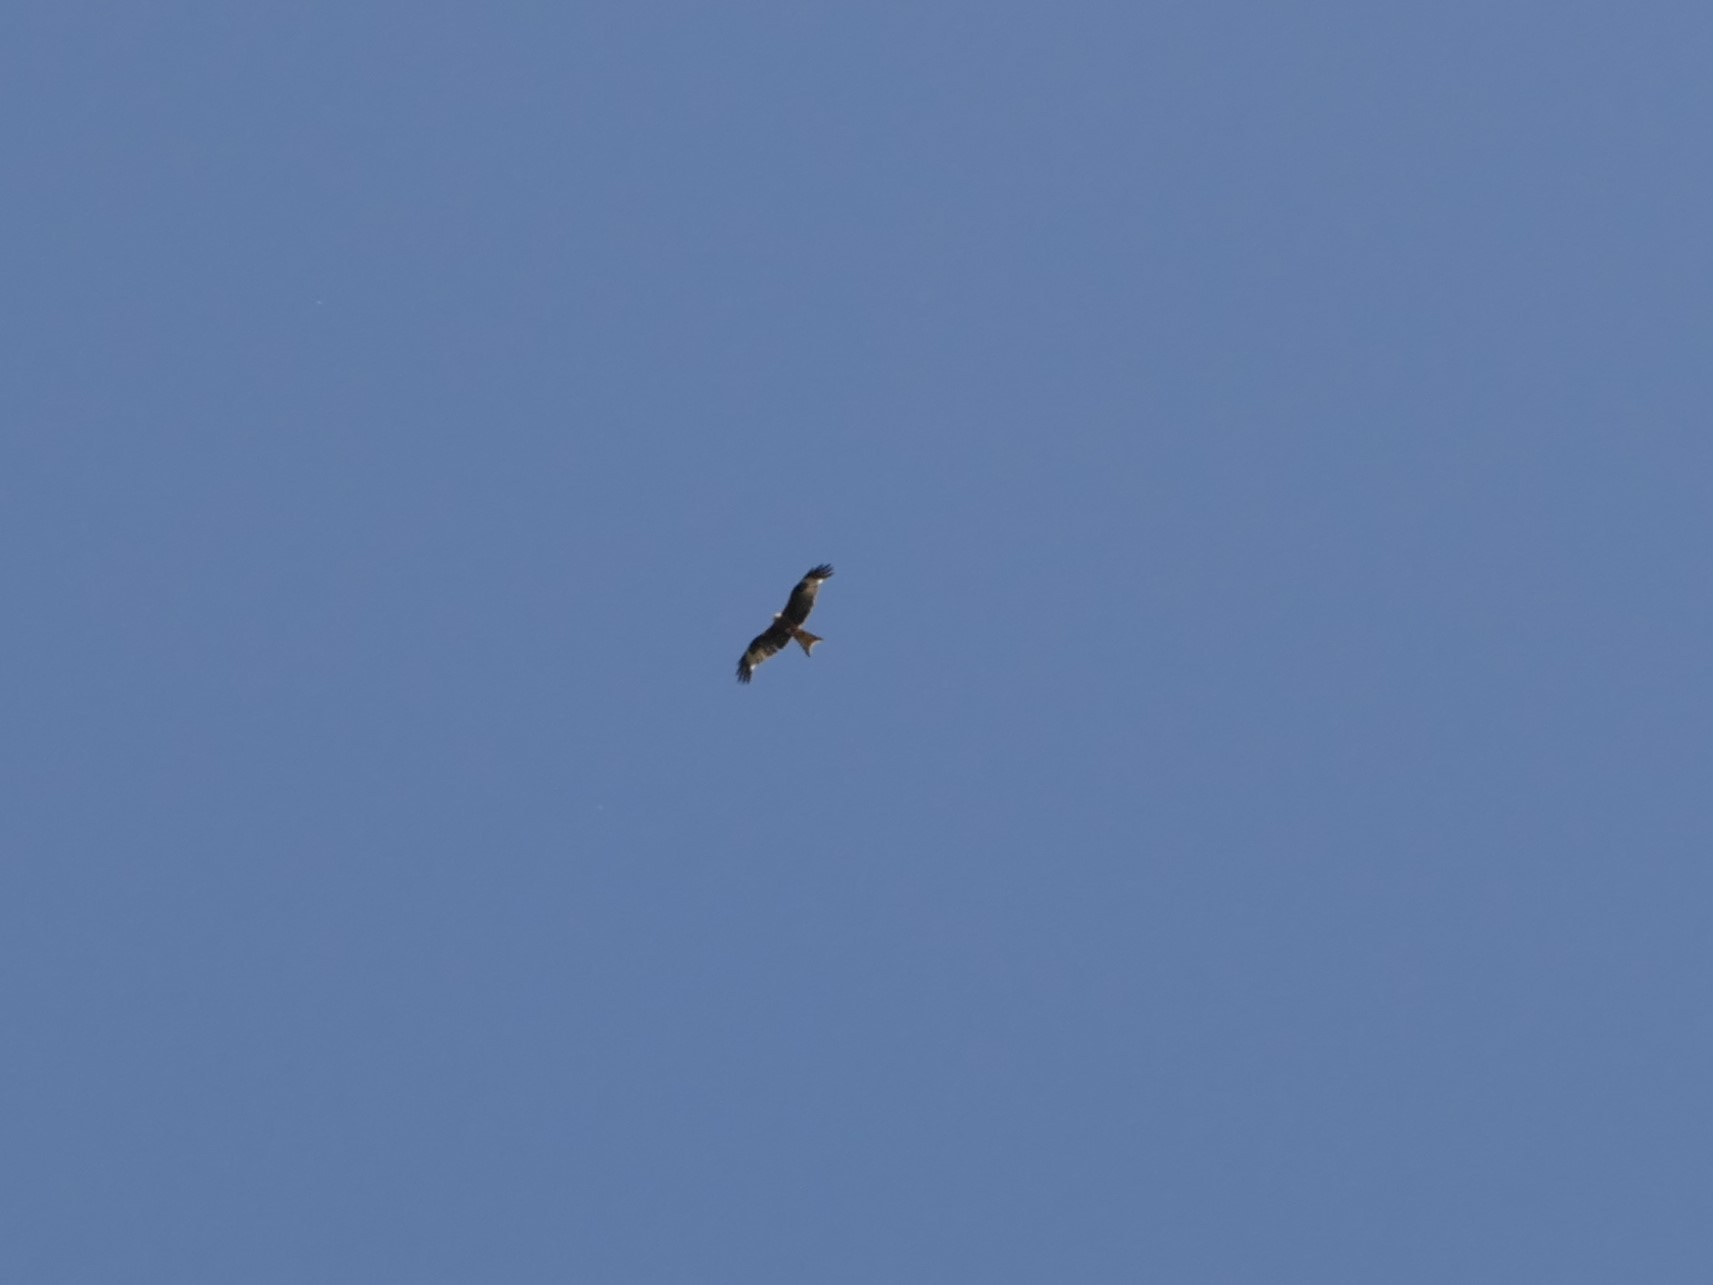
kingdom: Animalia
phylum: Chordata
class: Aves
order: Accipitriformes
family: Accipitridae
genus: Milvus
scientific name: Milvus milvus
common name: Red kite
